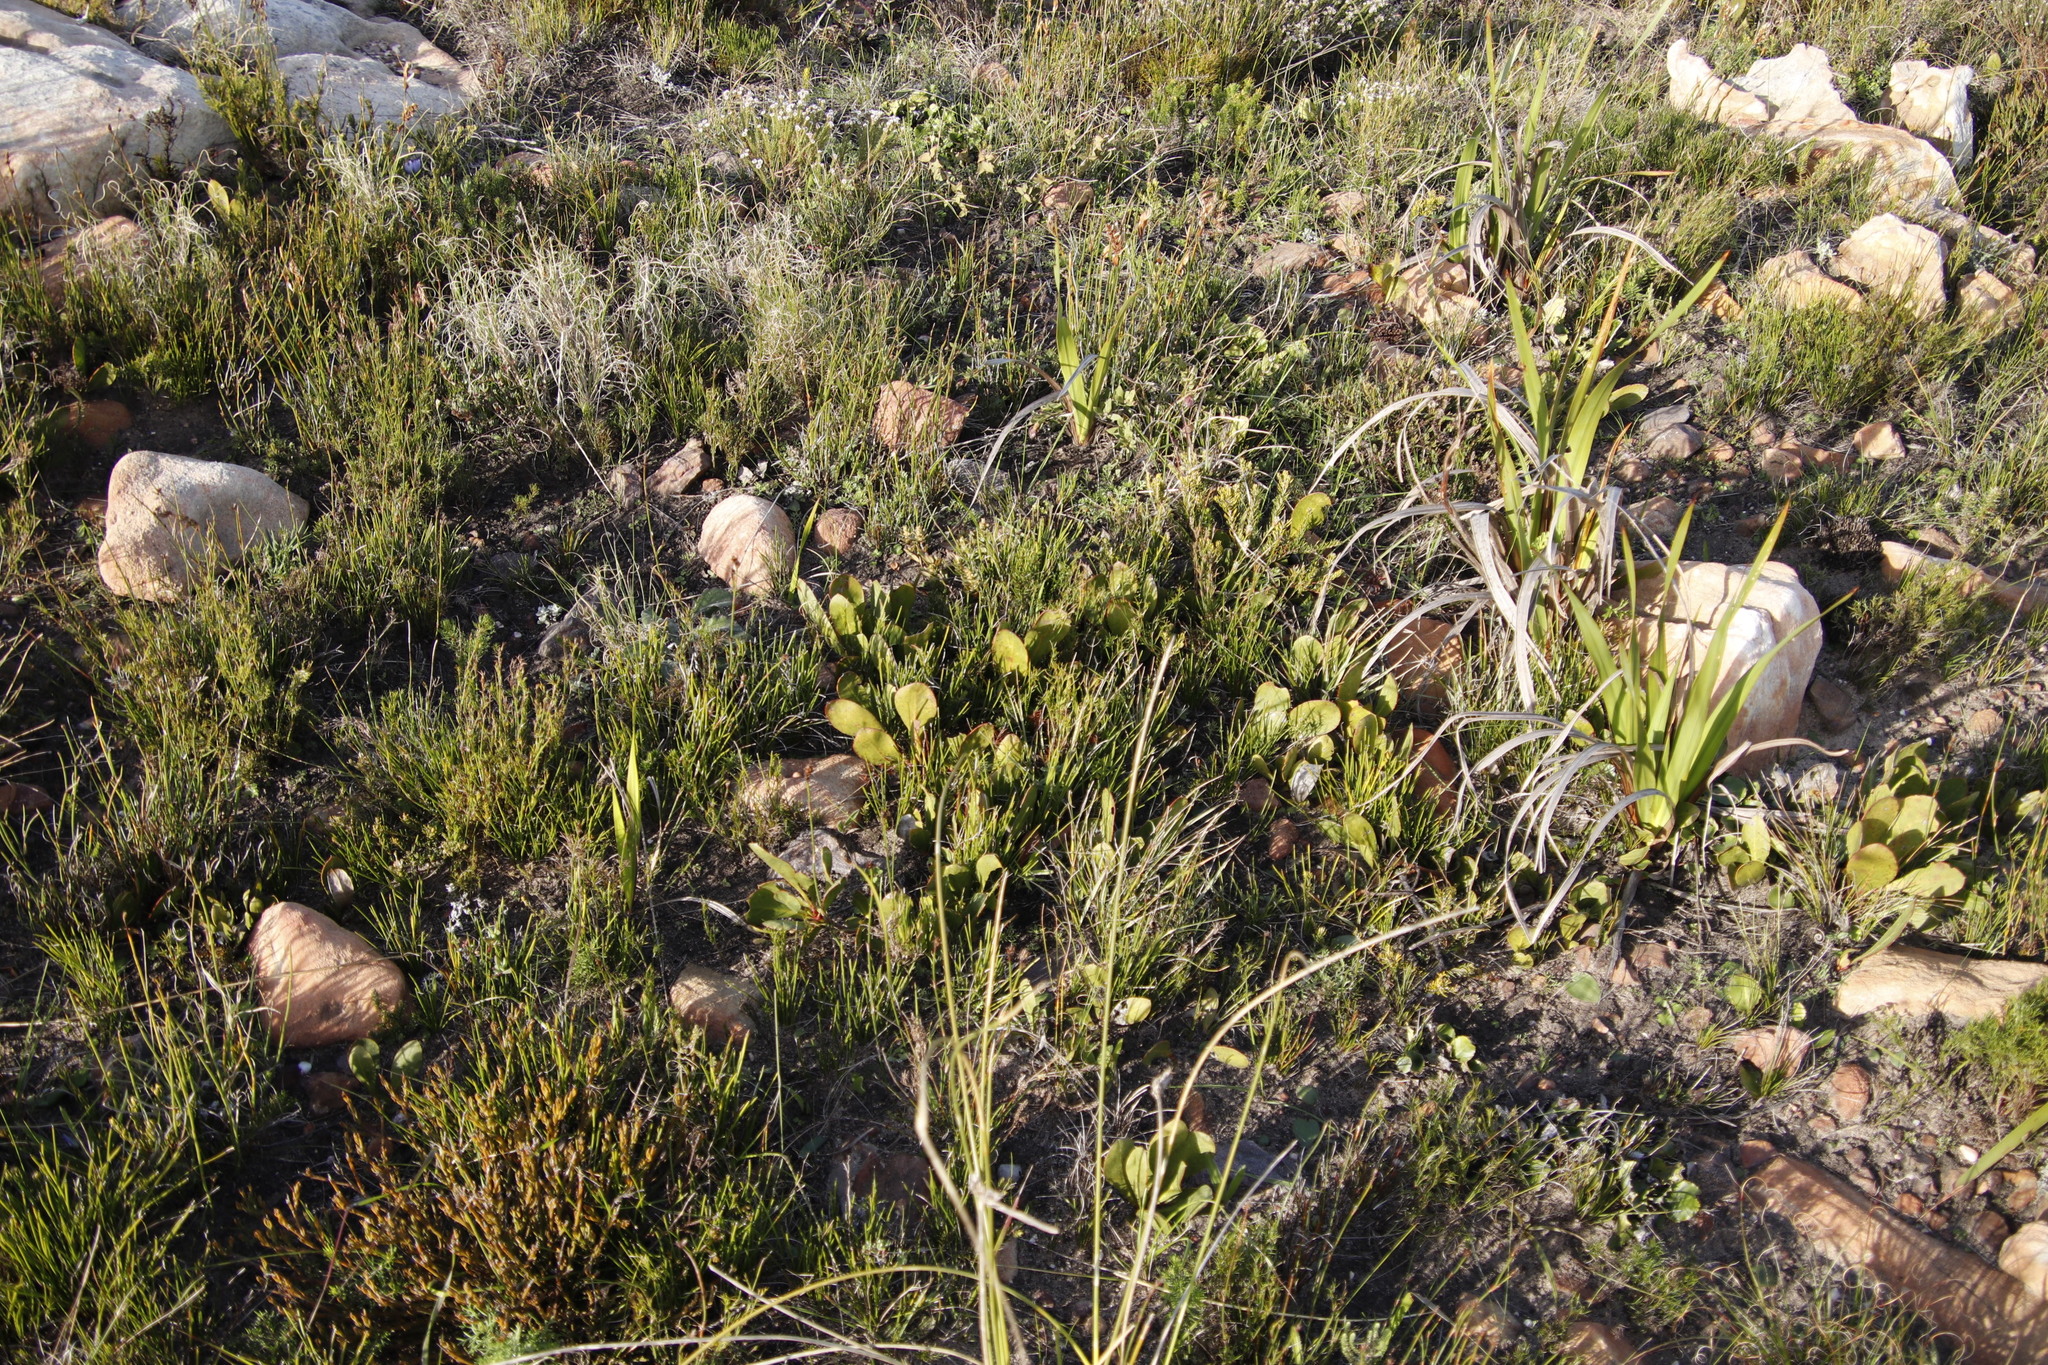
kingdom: Plantae
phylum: Tracheophyta
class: Magnoliopsida
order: Proteales
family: Proteaceae
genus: Protea
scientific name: Protea acaulos
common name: Common ground sugarbush
